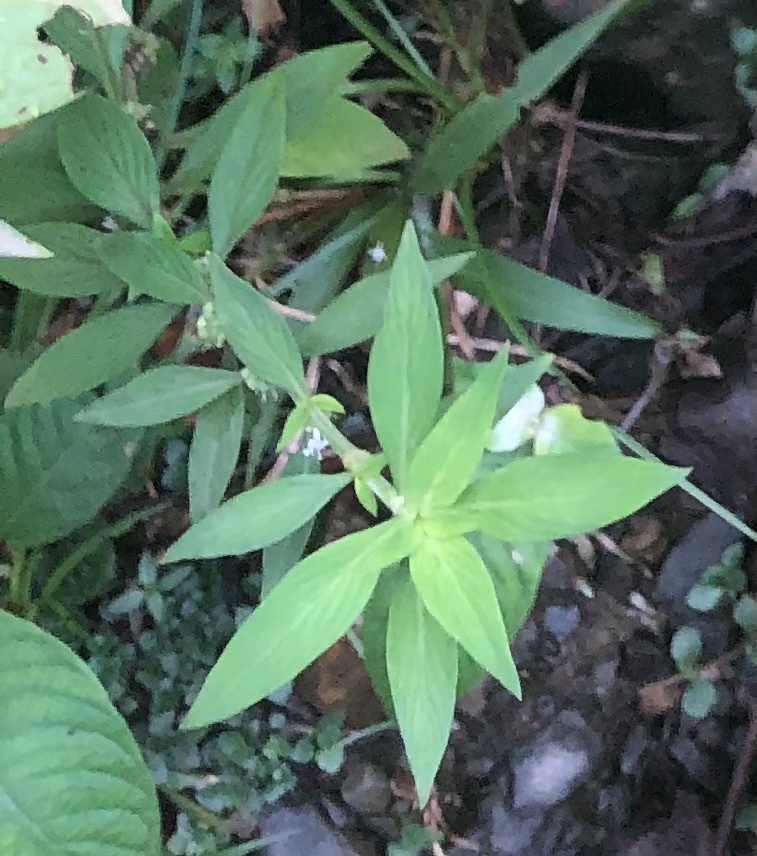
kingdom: Plantae
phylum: Tracheophyta
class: Magnoliopsida
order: Gentianales
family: Rubiaceae
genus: Spermacoce
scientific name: Spermacoce ocymifolia
